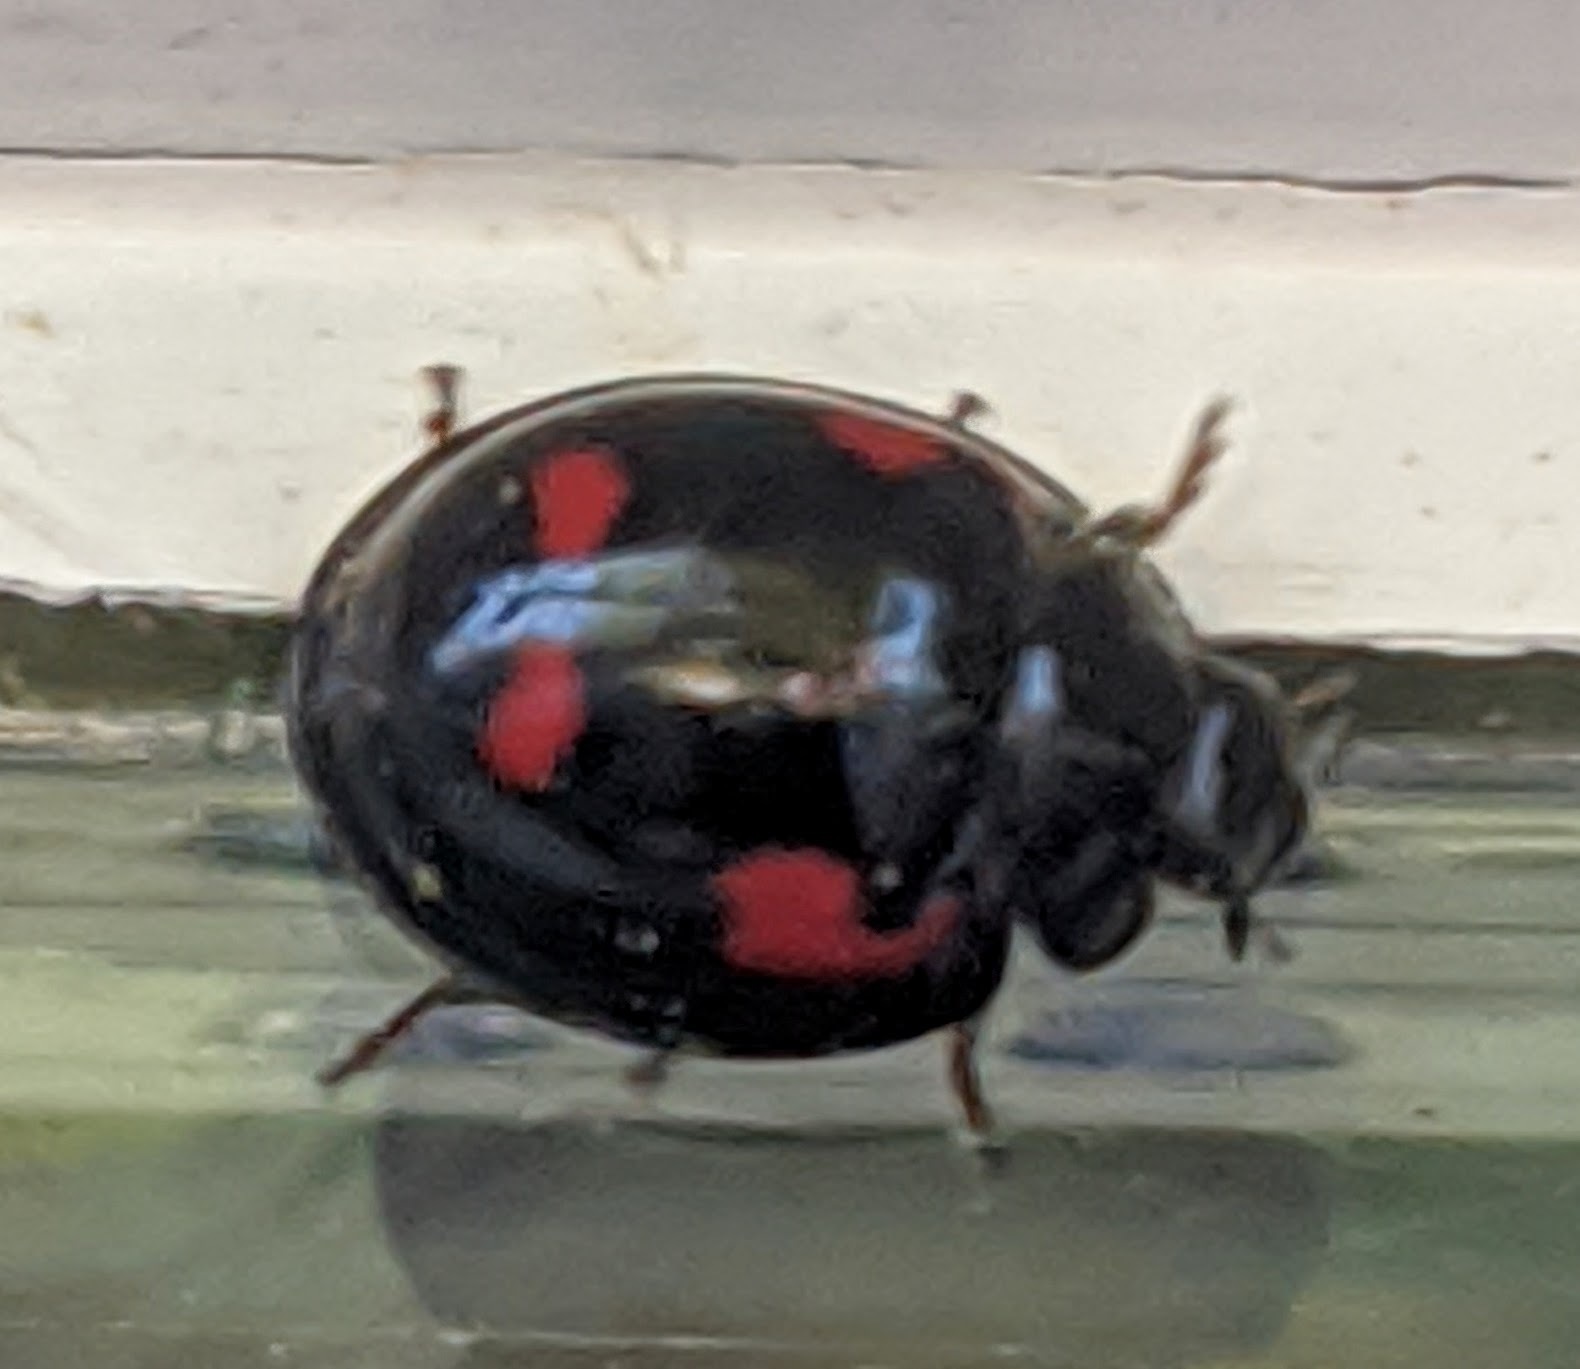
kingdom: Animalia
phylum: Arthropoda
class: Insecta
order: Coleoptera
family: Coccinellidae
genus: Brumus
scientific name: Brumus quadripustulatus
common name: Ladybird beetle
